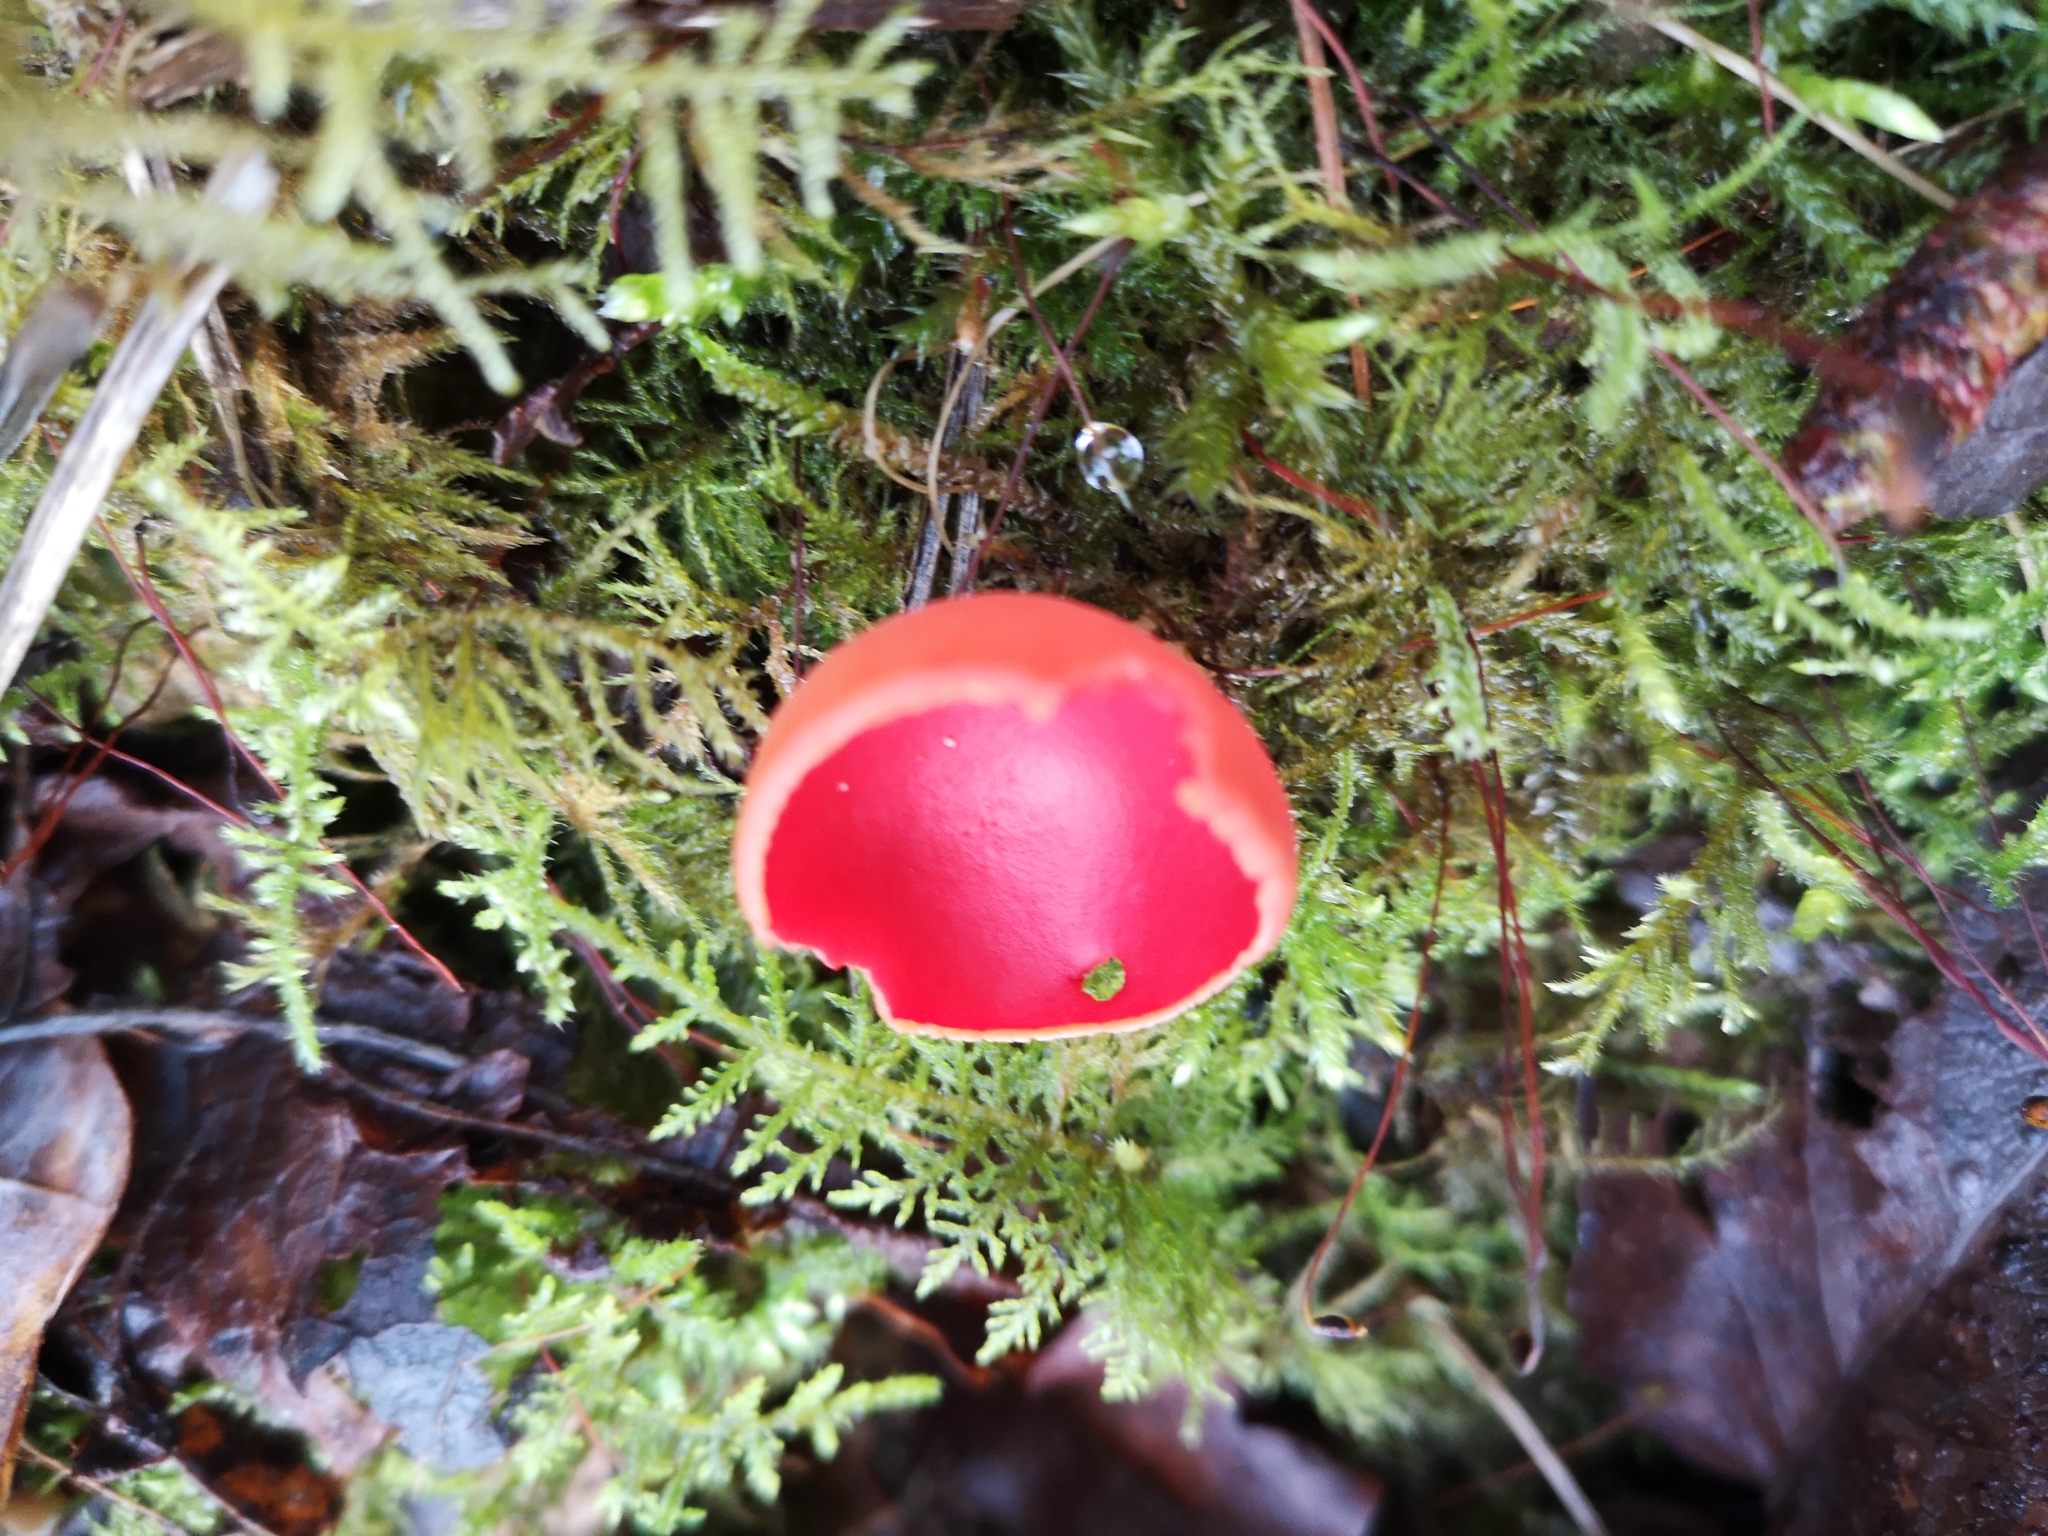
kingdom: Fungi
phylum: Ascomycota
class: Pezizomycetes
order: Pezizales
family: Sarcoscyphaceae
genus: Sarcoscypha
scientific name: Sarcoscypha
